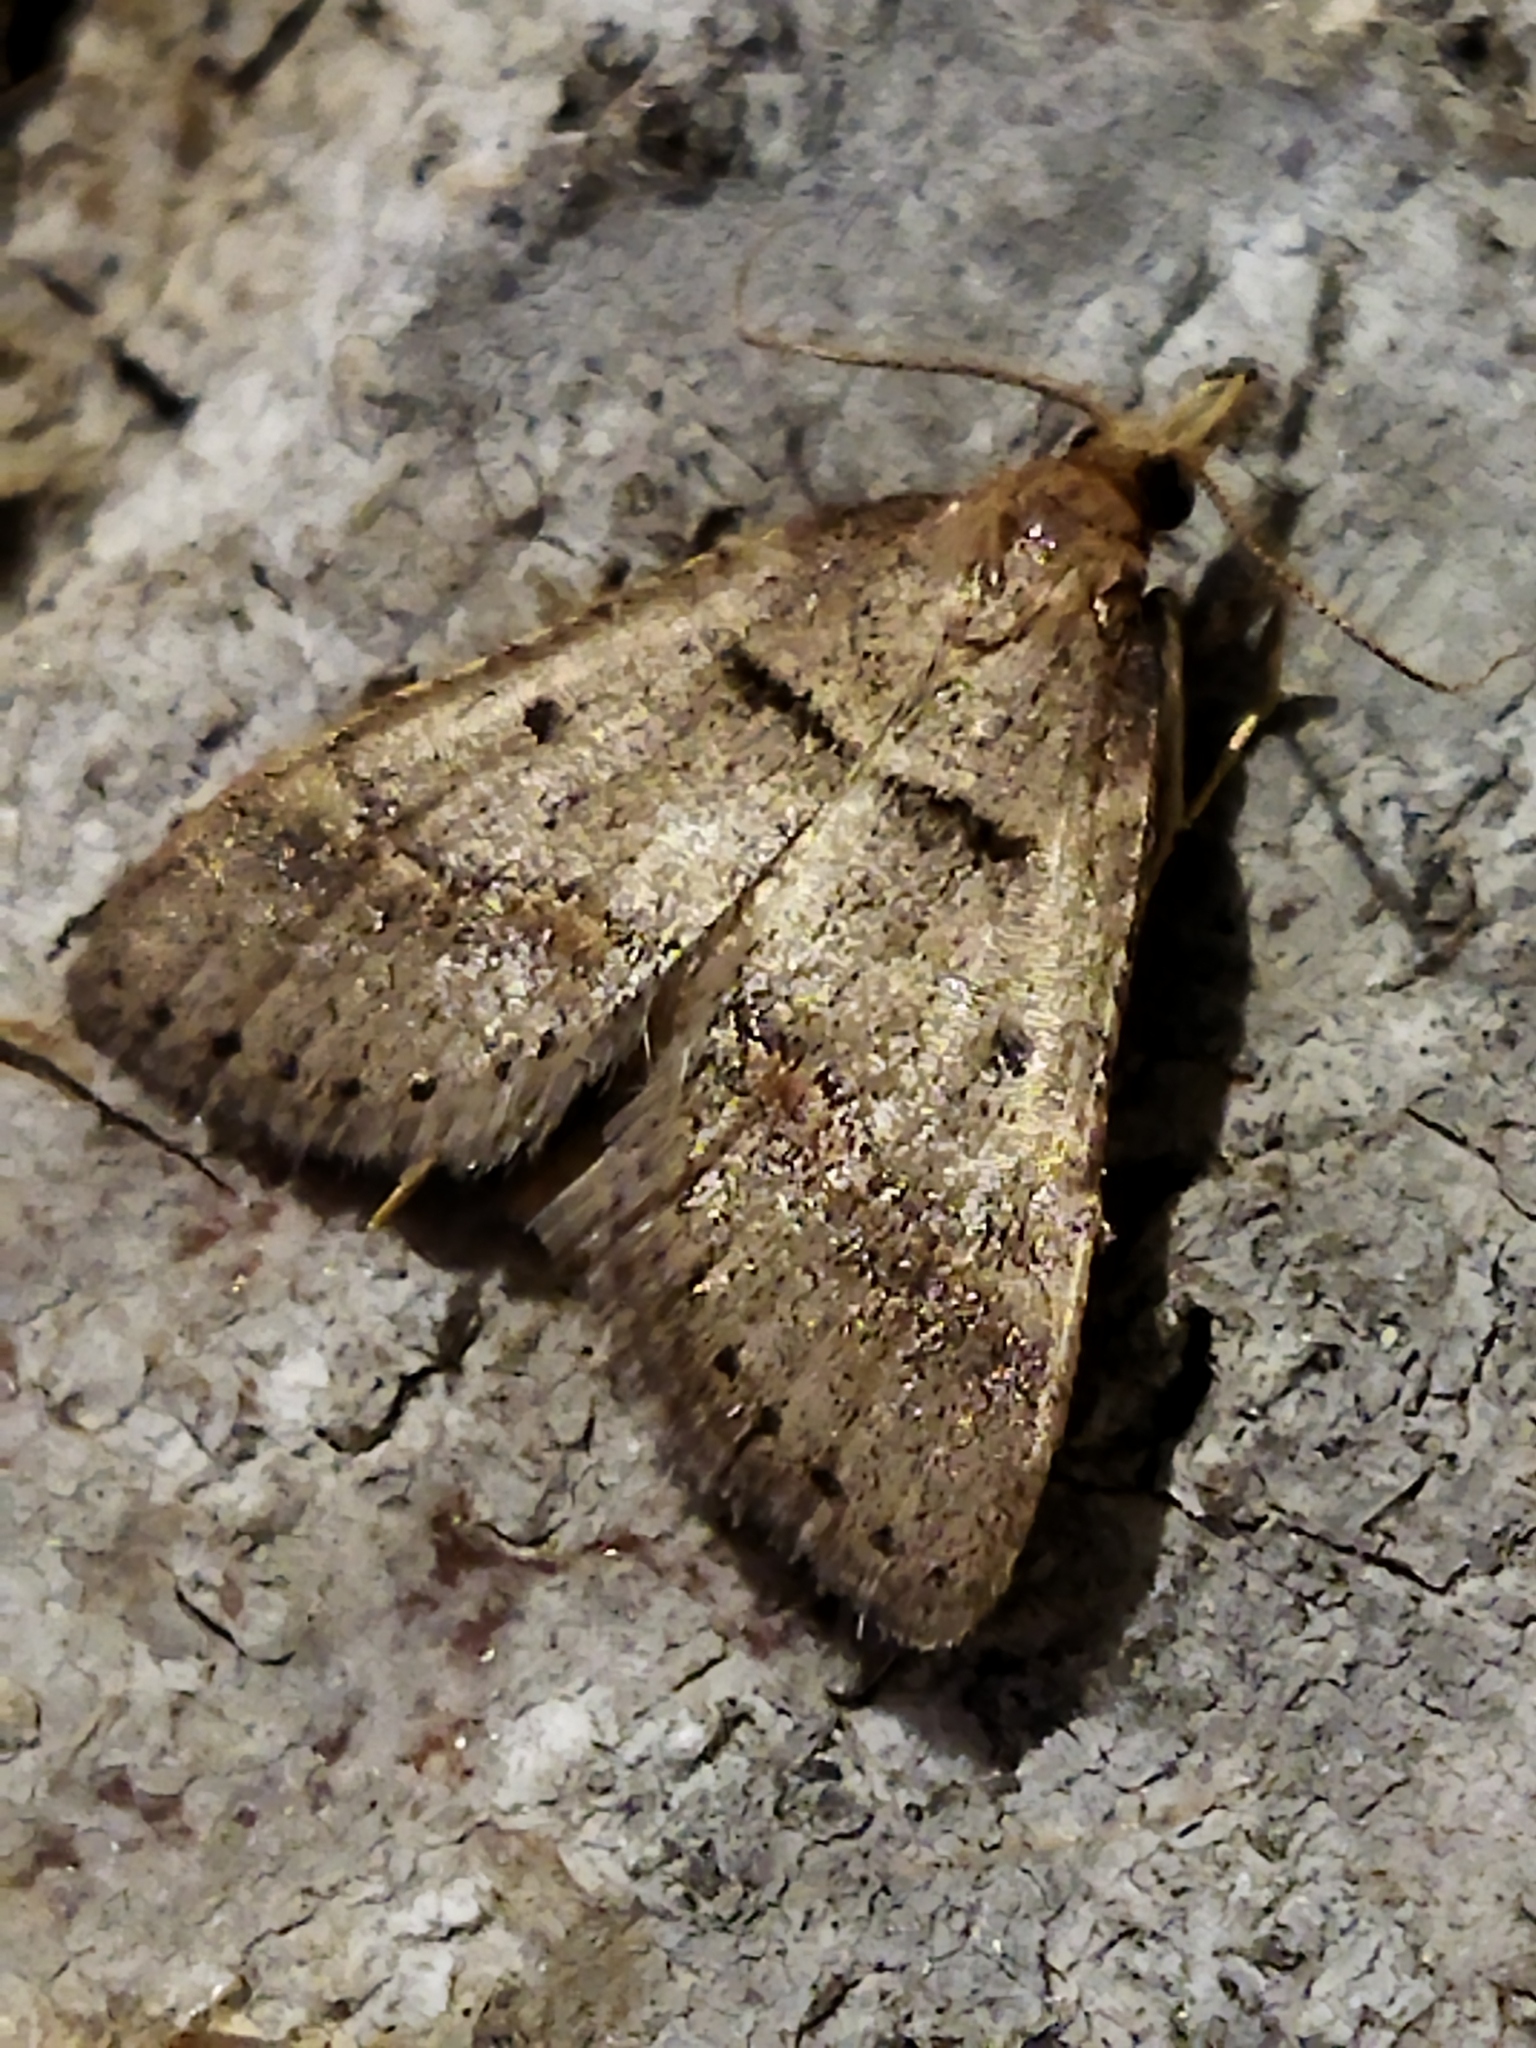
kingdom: Animalia
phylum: Arthropoda
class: Insecta
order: Lepidoptera
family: Pyralidae
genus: Stemmatophora
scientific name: Stemmatophora brunnealis
